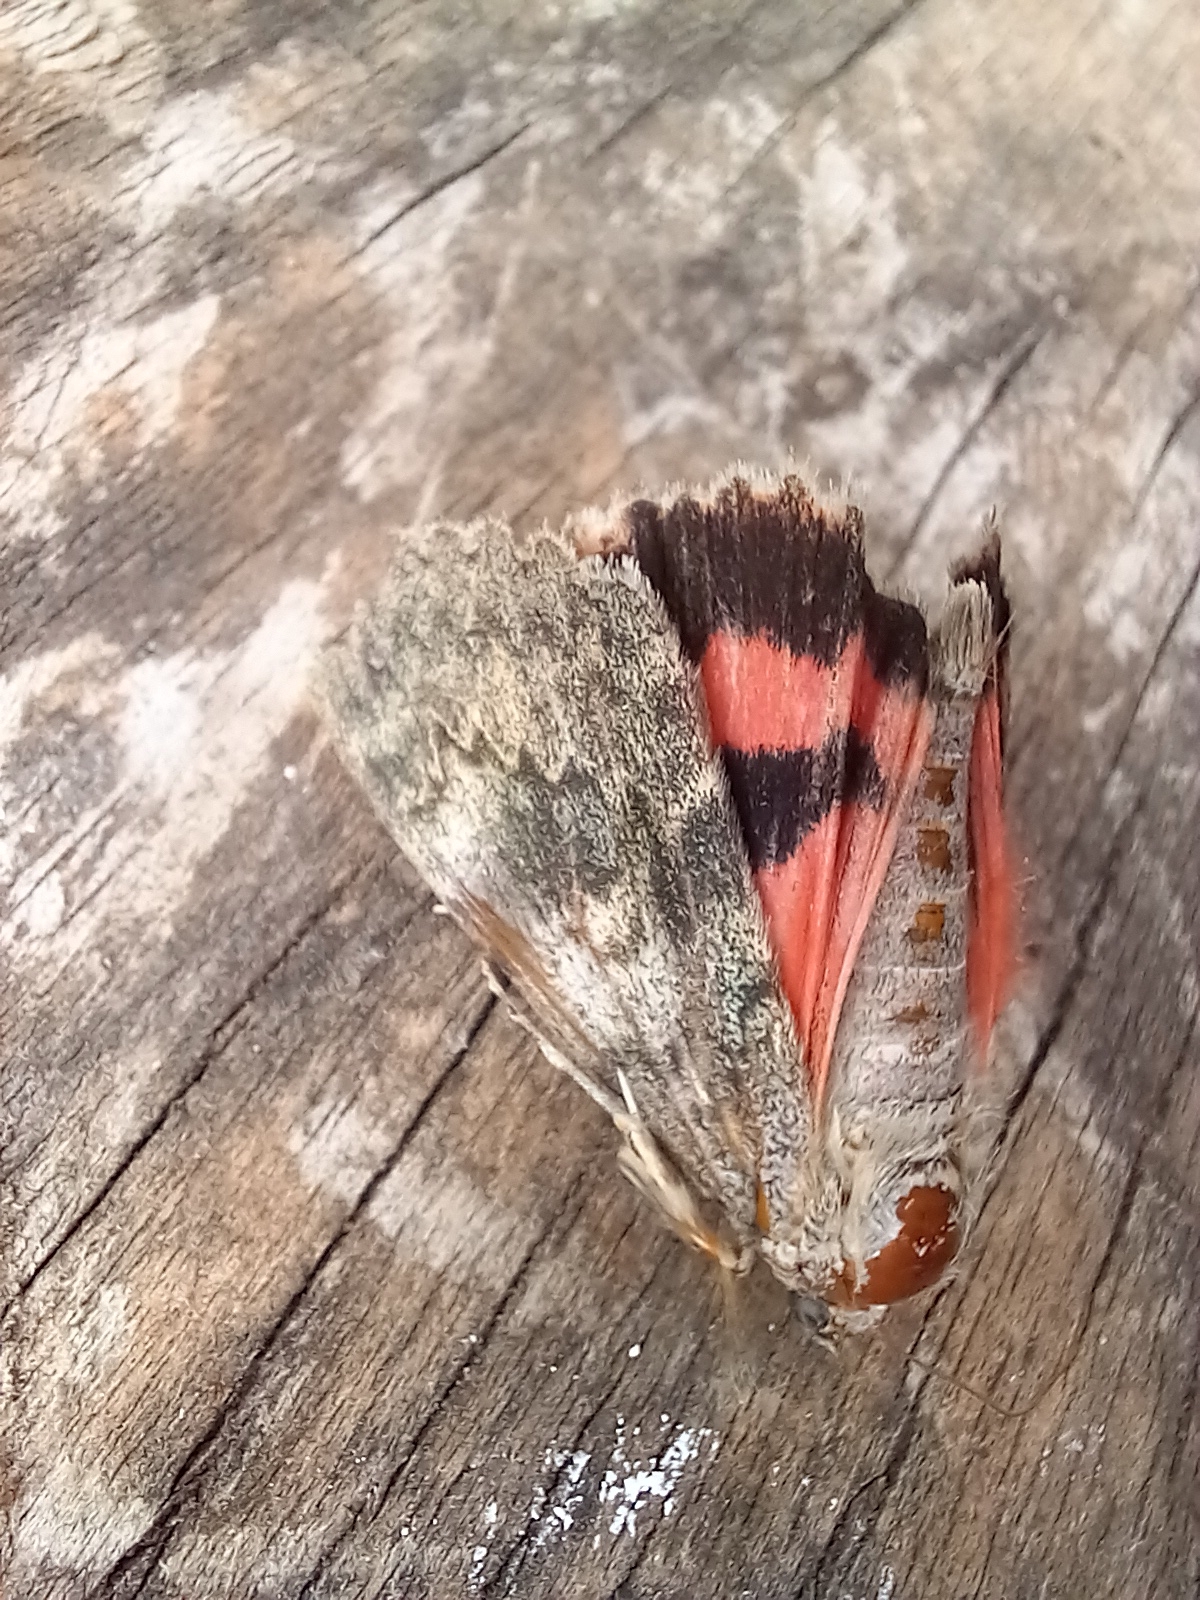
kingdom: Animalia
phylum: Arthropoda
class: Insecta
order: Lepidoptera
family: Erebidae
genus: Catocala
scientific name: Catocala elocata
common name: French red underwing
